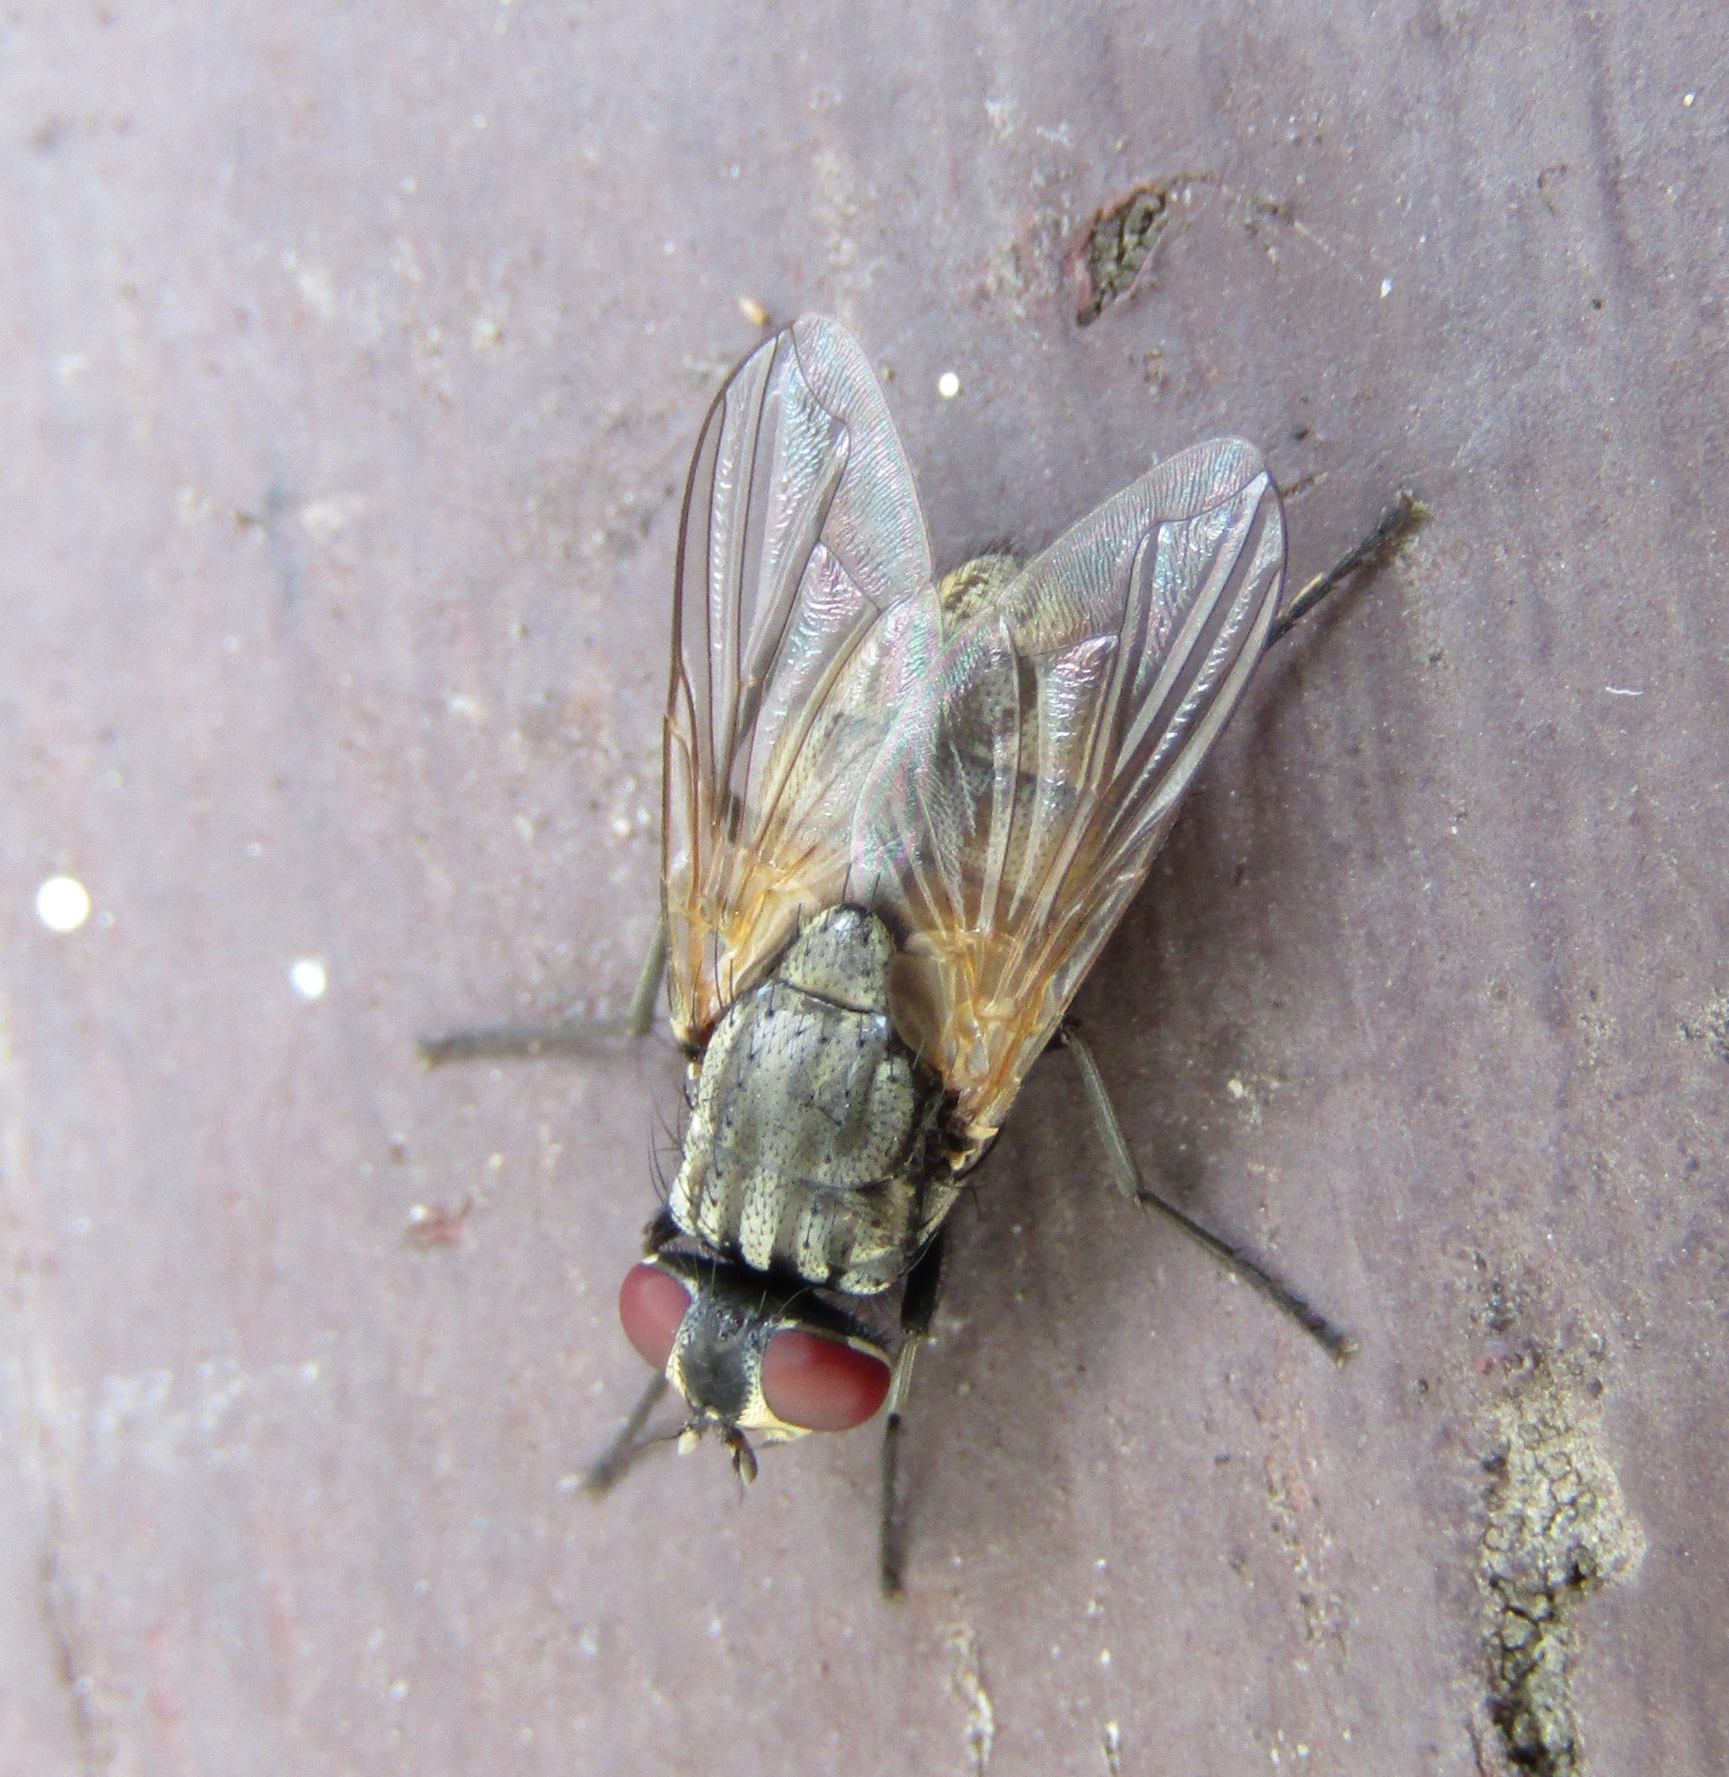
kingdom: Animalia
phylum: Arthropoda
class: Insecta
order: Diptera
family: Muscidae
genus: Musca
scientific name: Musca domestica
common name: House fly
